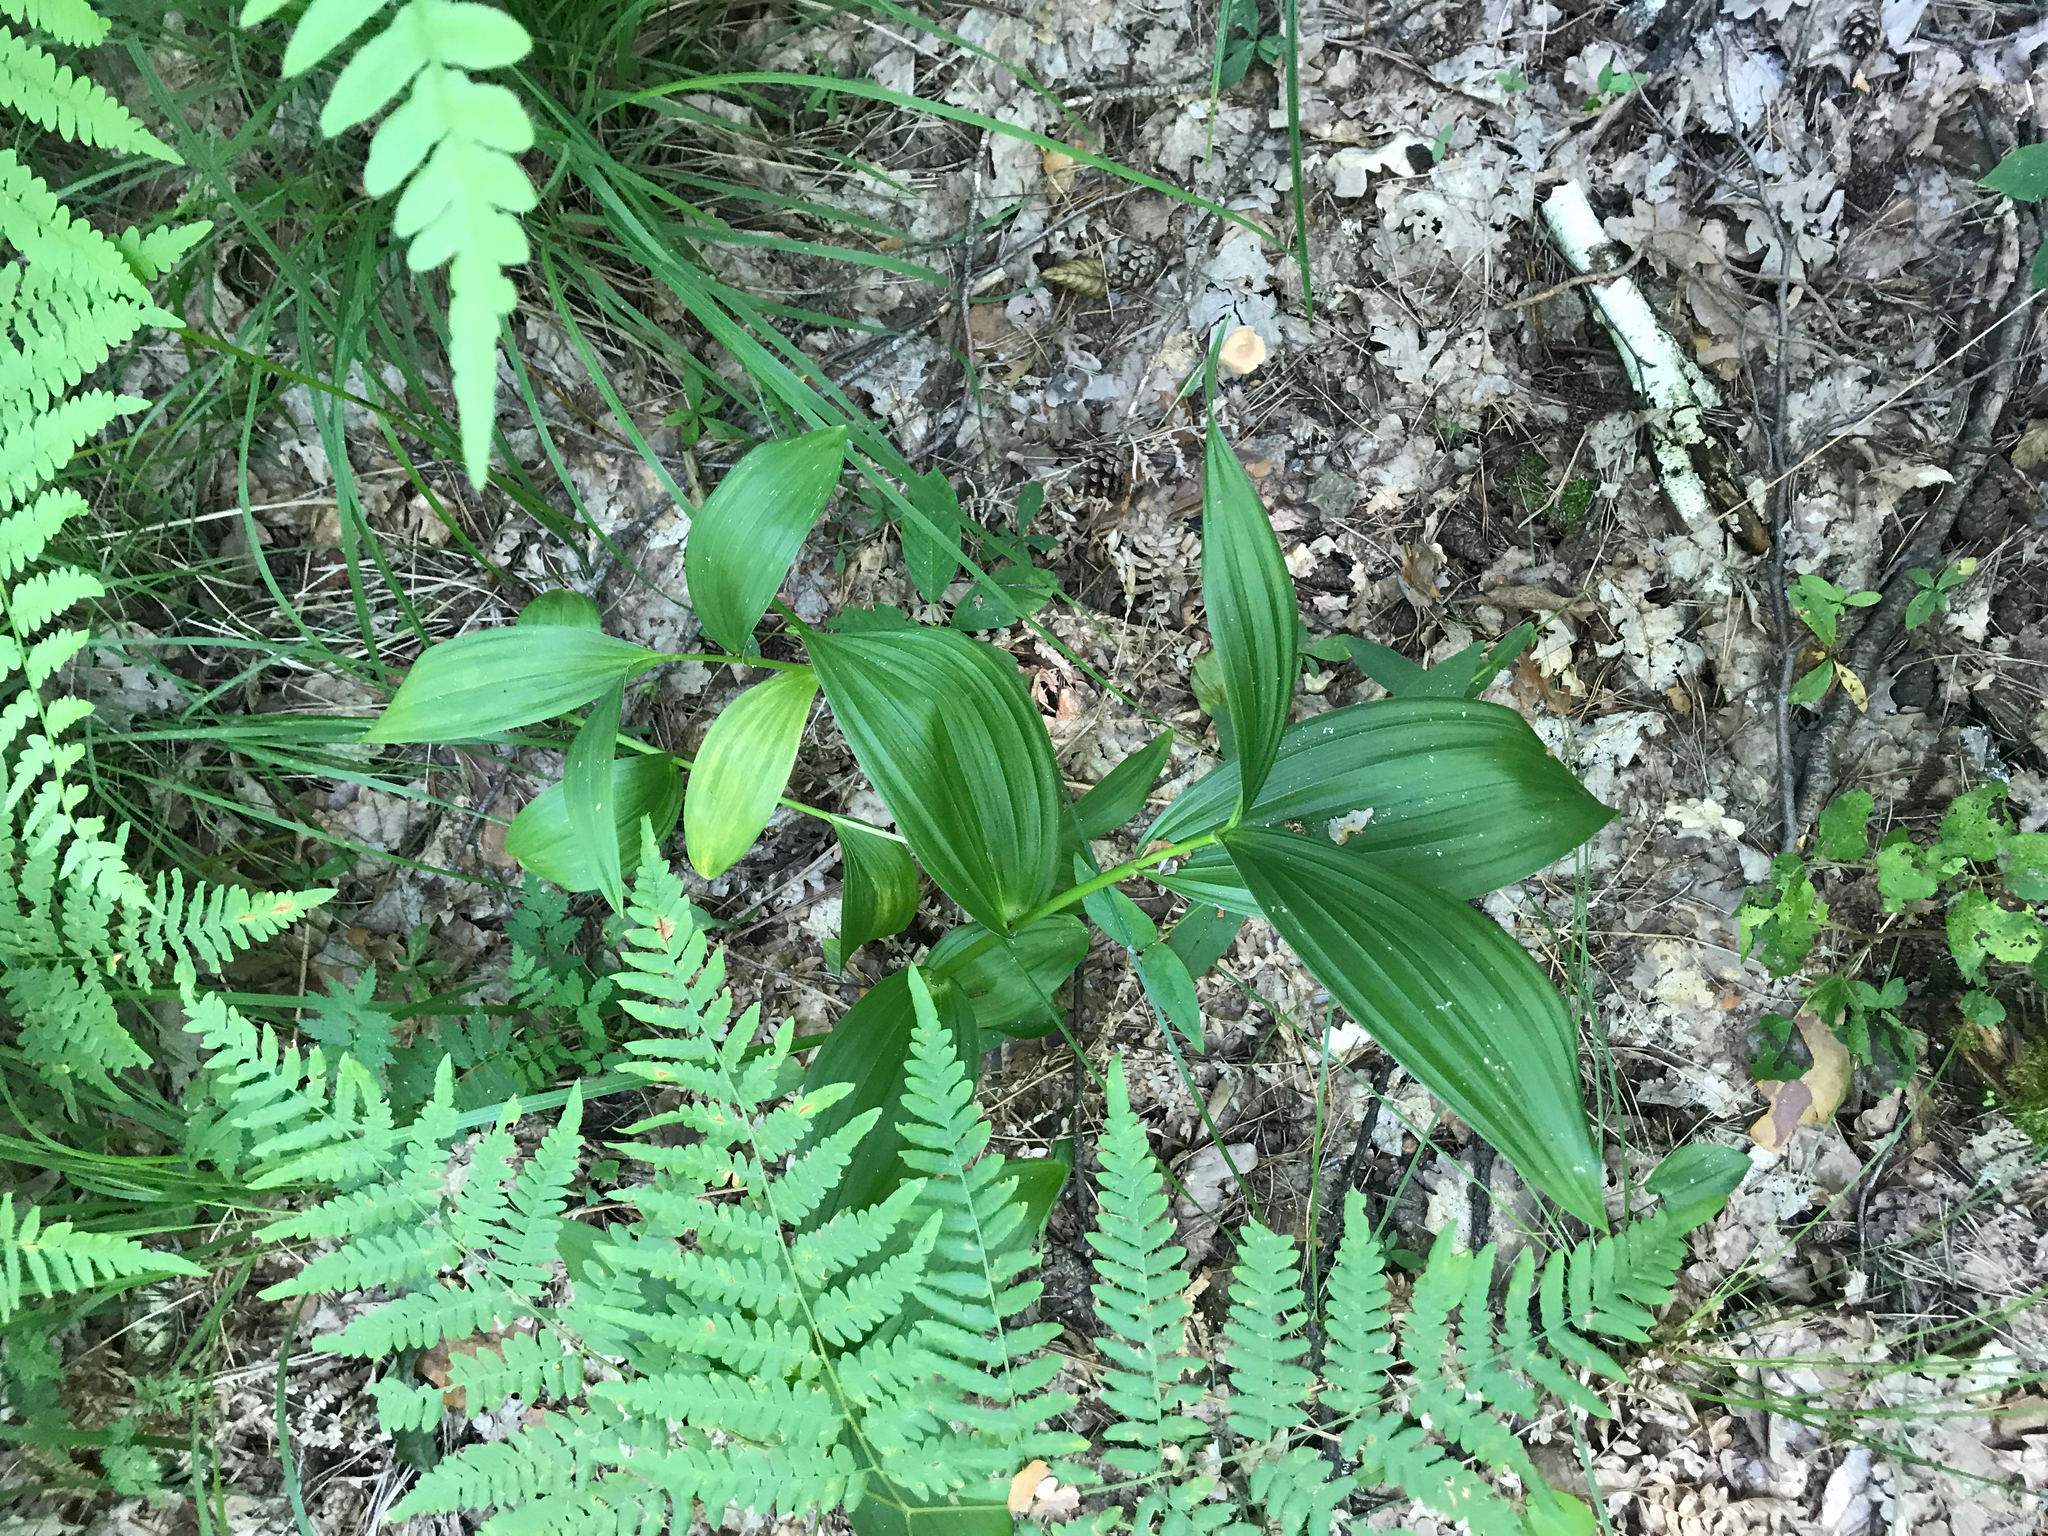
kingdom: Plantae
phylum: Tracheophyta
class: Liliopsida
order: Liliales
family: Melanthiaceae
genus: Veratrum
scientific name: Veratrum lobelianum
